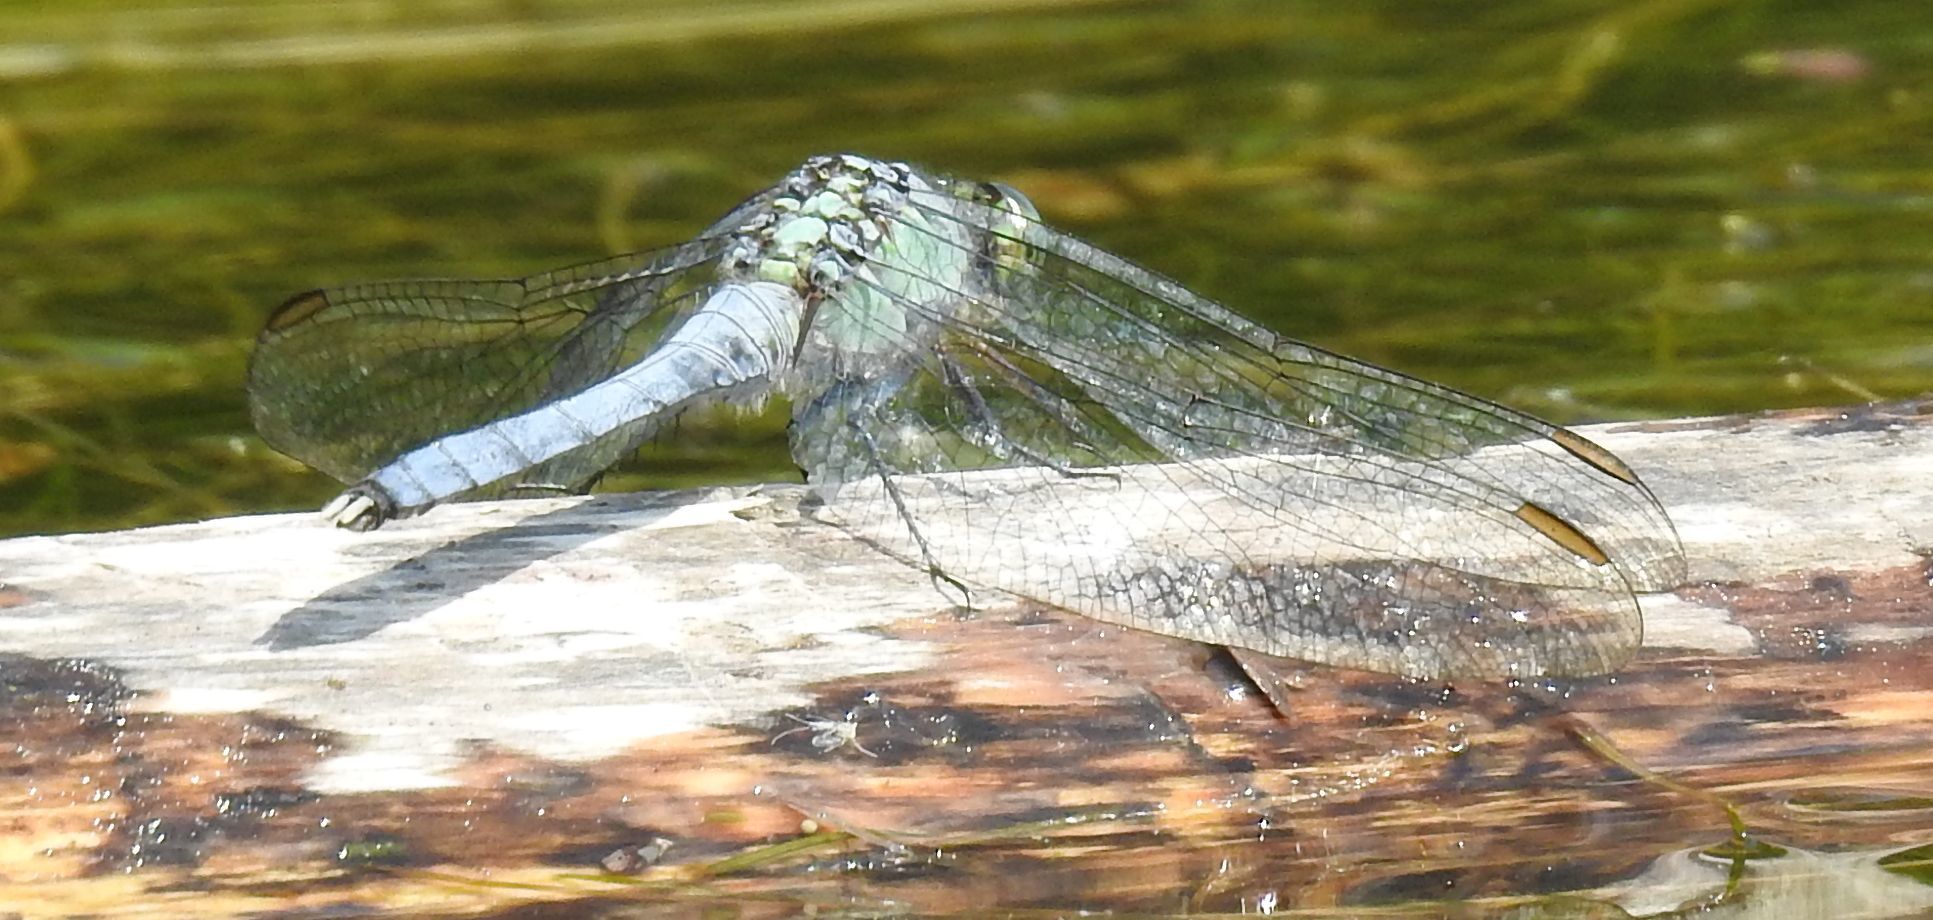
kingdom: Animalia
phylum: Arthropoda
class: Insecta
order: Odonata
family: Libellulidae
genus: Erythemis
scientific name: Erythemis simplicicollis
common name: Eastern pondhawk
